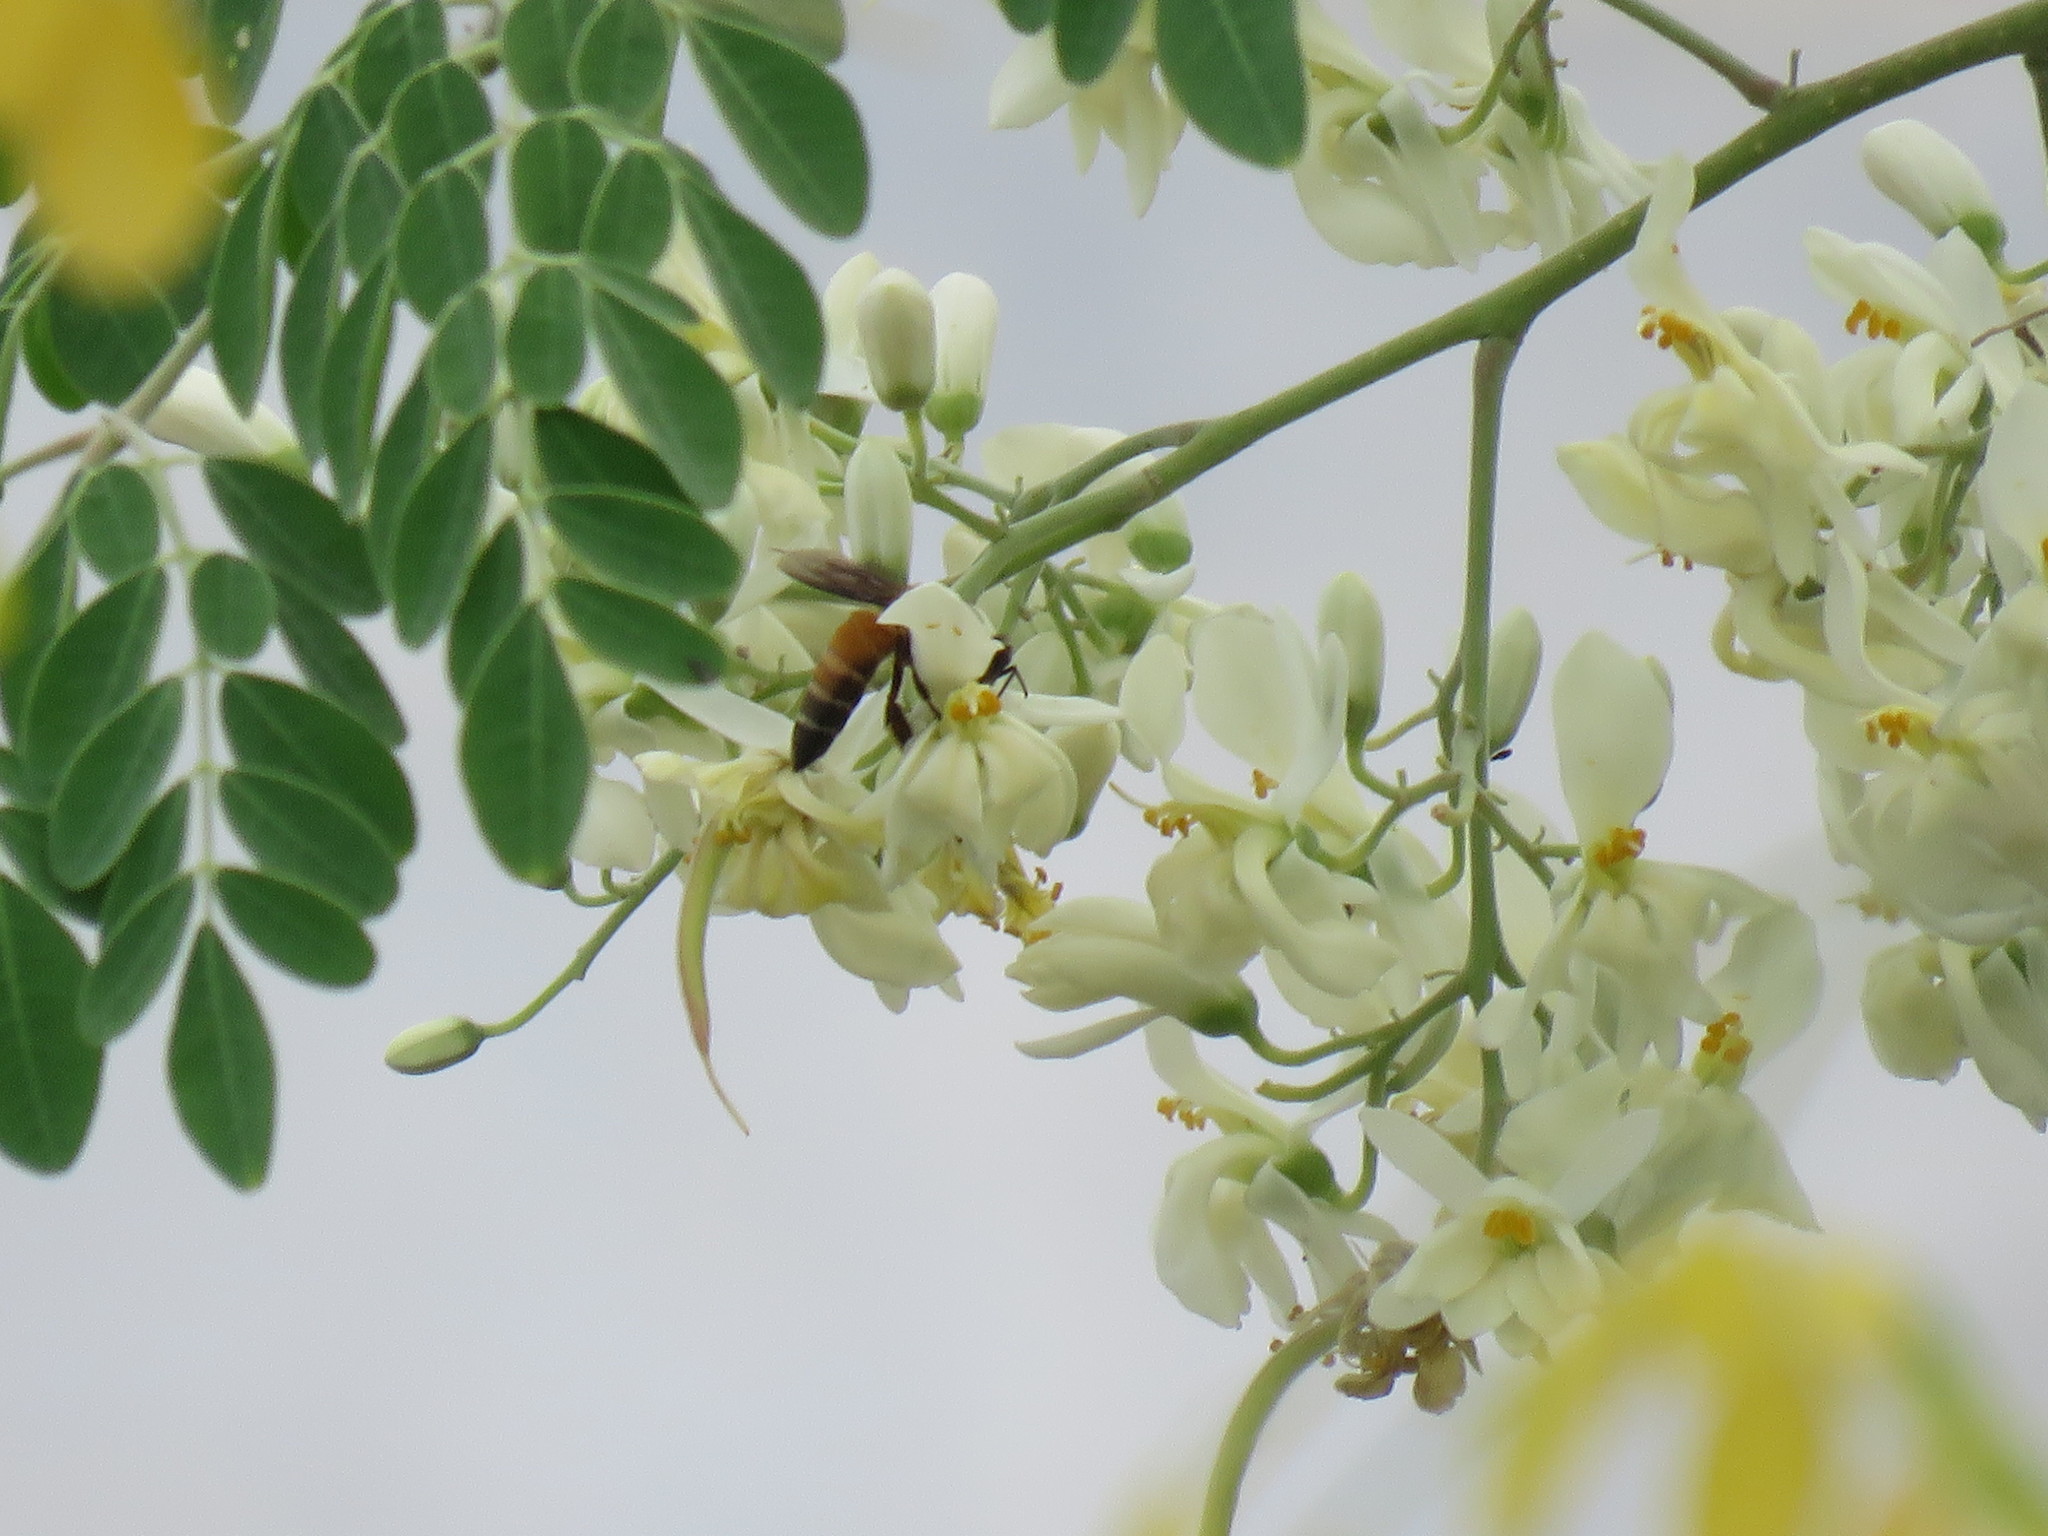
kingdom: Animalia
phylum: Arthropoda
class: Insecta
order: Hymenoptera
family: Apidae
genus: Apis
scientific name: Apis dorsata
